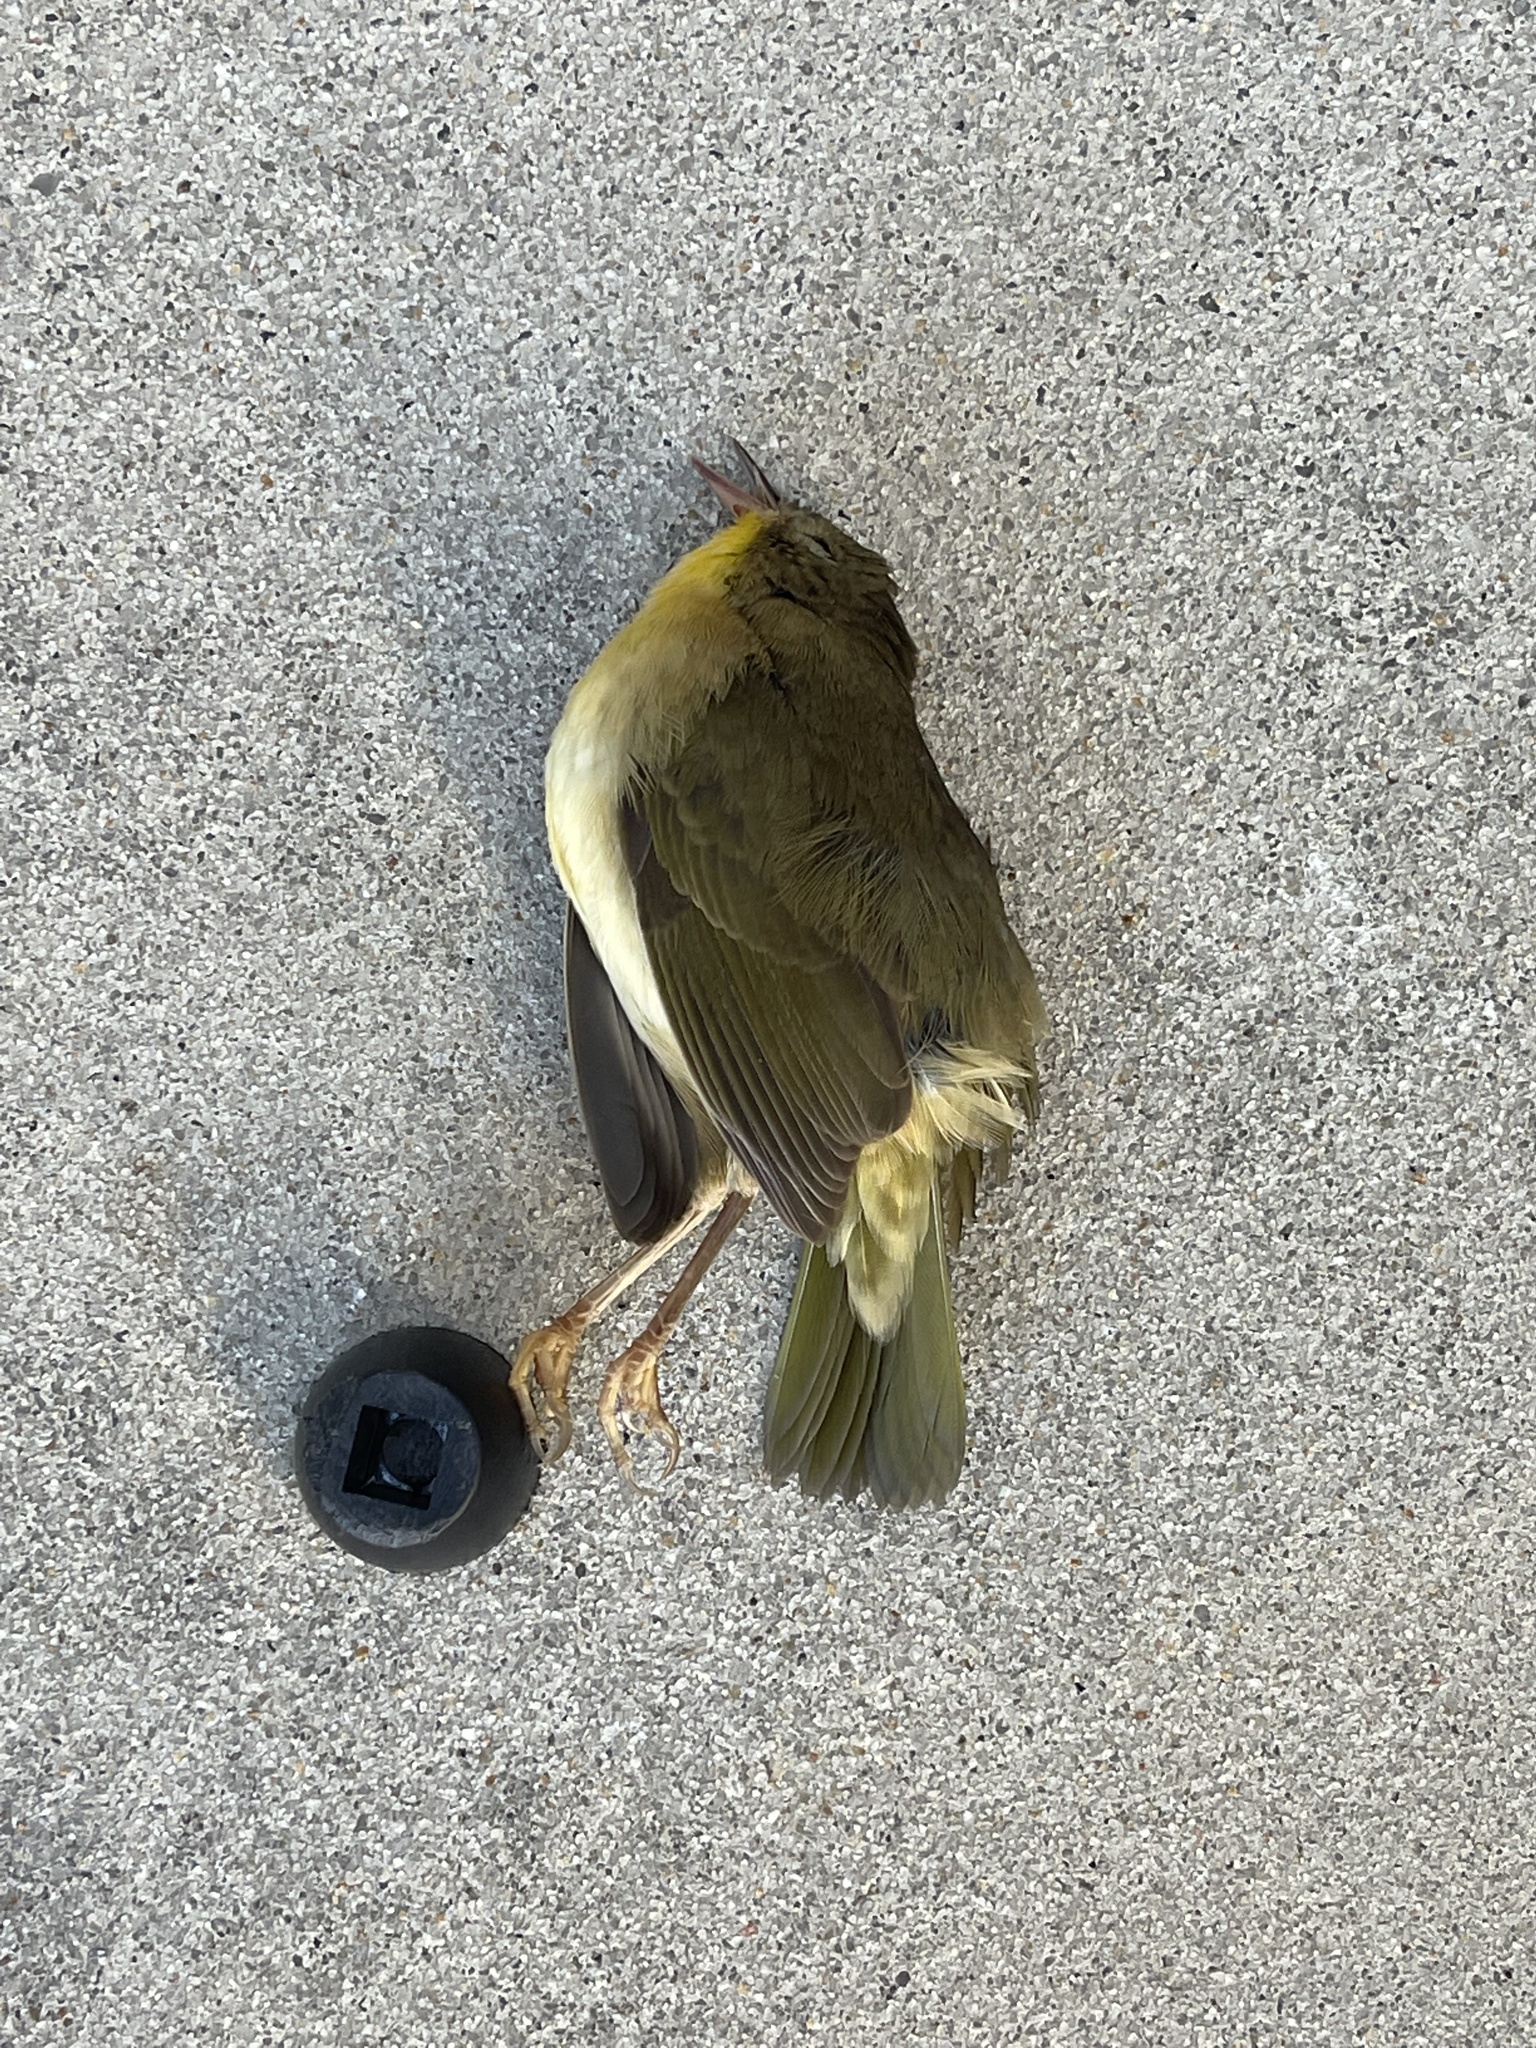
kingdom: Animalia
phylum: Chordata
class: Aves
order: Passeriformes
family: Parulidae
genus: Geothlypis
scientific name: Geothlypis trichas
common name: Common yellowthroat
